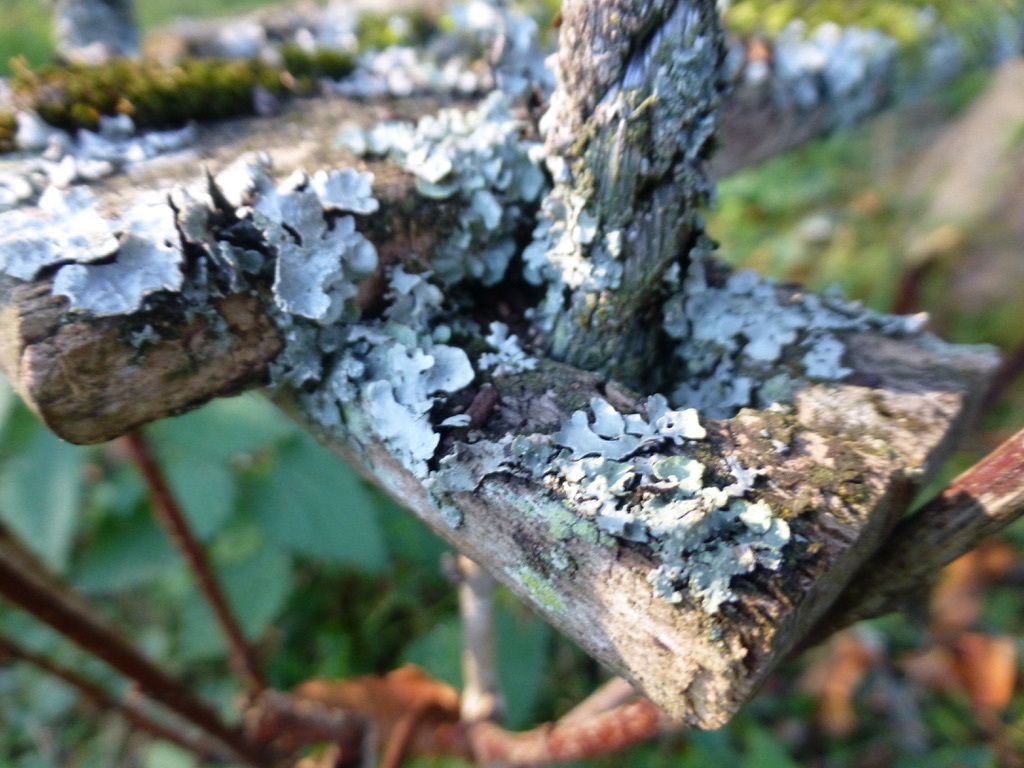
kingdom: Fungi
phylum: Ascomycota
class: Lecanoromycetes
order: Lecanorales
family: Parmeliaceae
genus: Parmelia
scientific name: Parmelia sulcata
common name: Netted shield lichen
